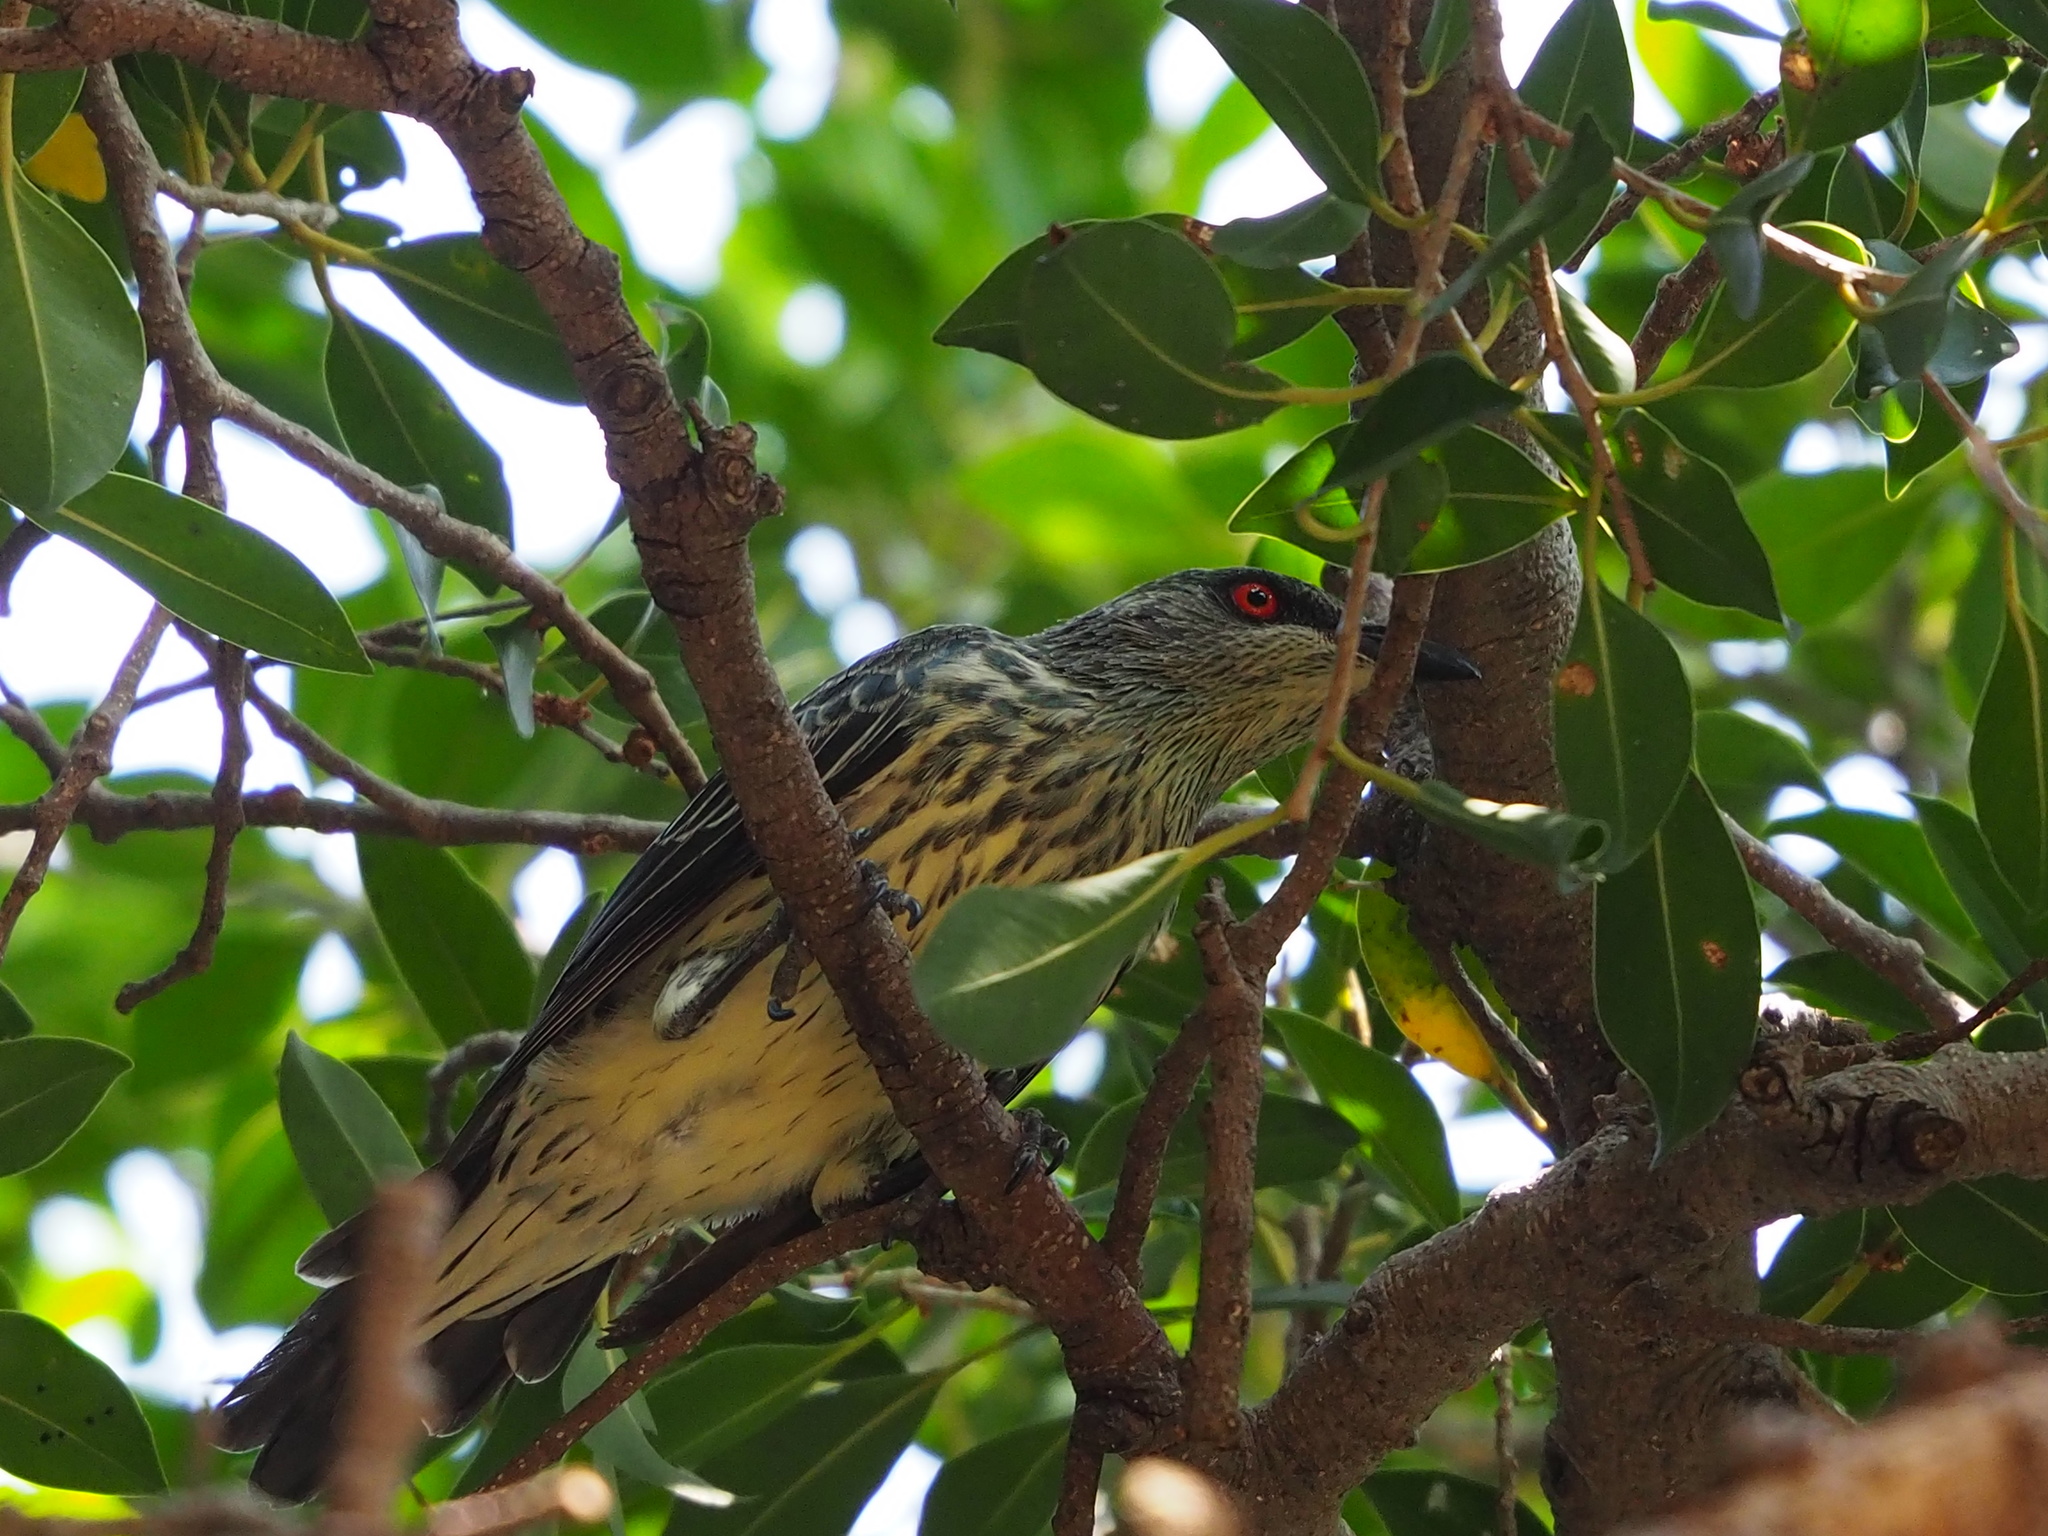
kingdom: Animalia
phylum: Chordata
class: Aves
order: Passeriformes
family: Sturnidae
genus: Aplonis
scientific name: Aplonis panayensis
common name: Asian glossy starling
